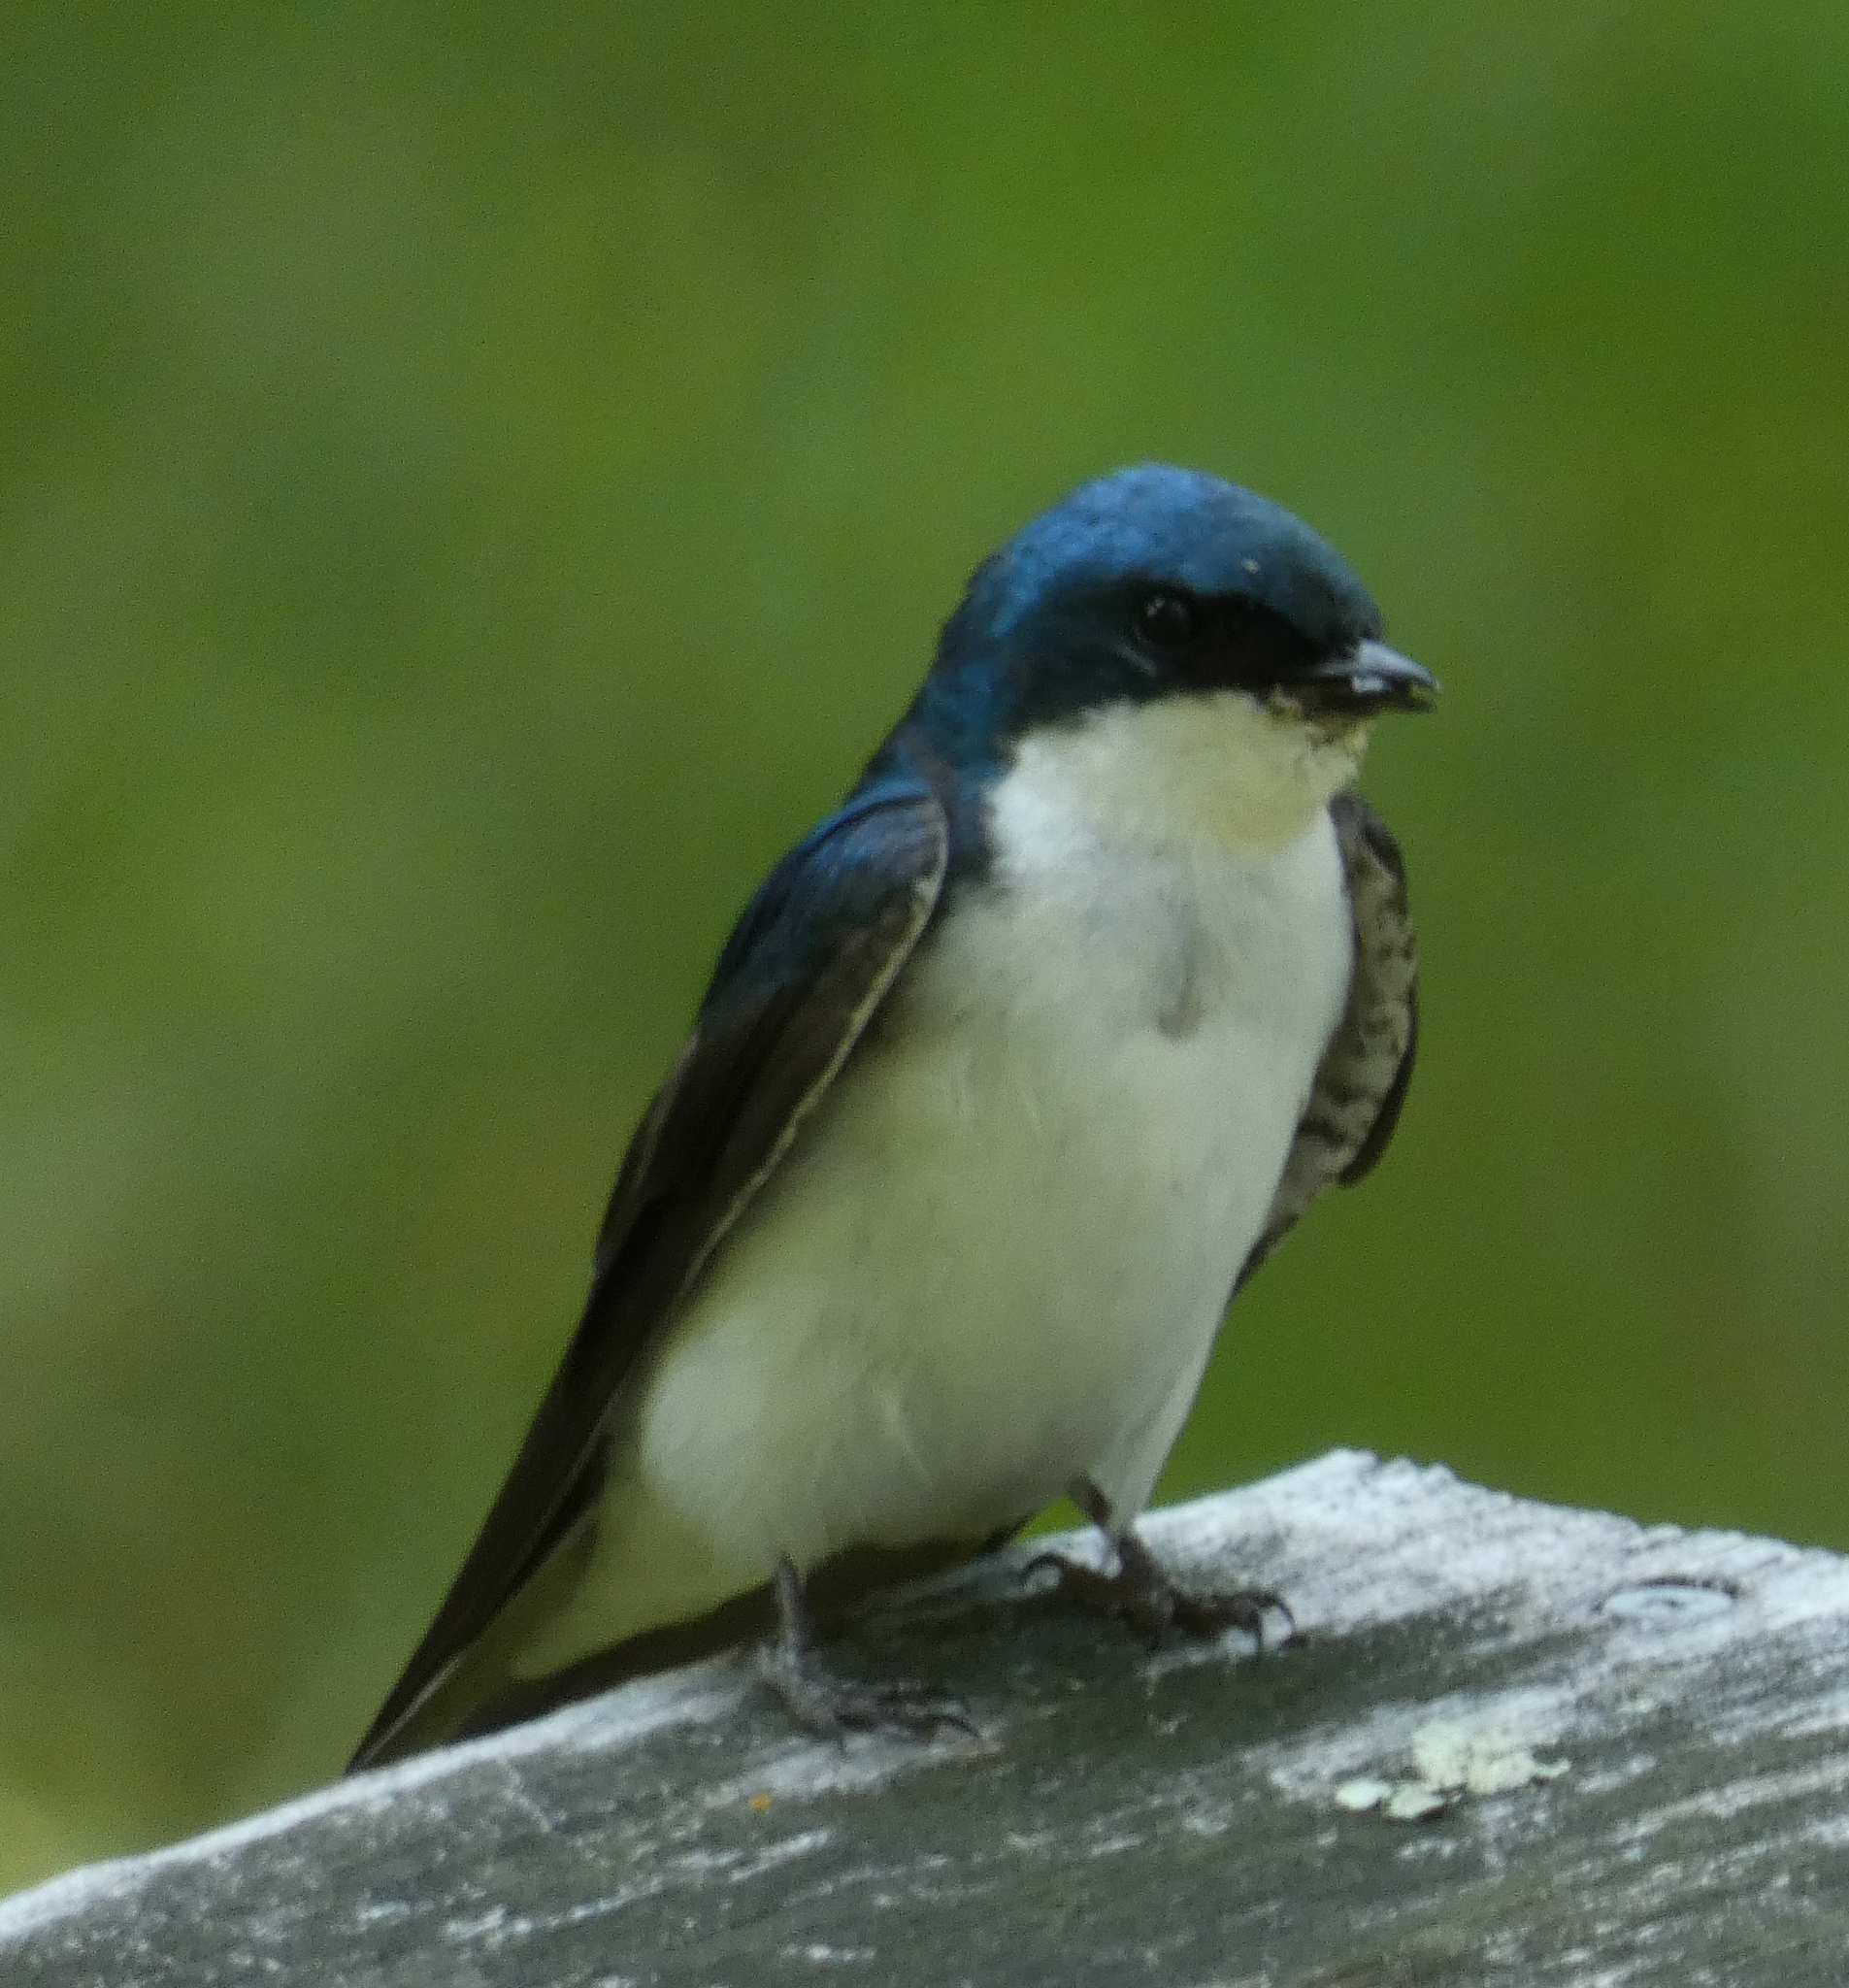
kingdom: Animalia
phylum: Chordata
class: Aves
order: Passeriformes
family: Hirundinidae
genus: Tachycineta
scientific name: Tachycineta bicolor
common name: Tree swallow
